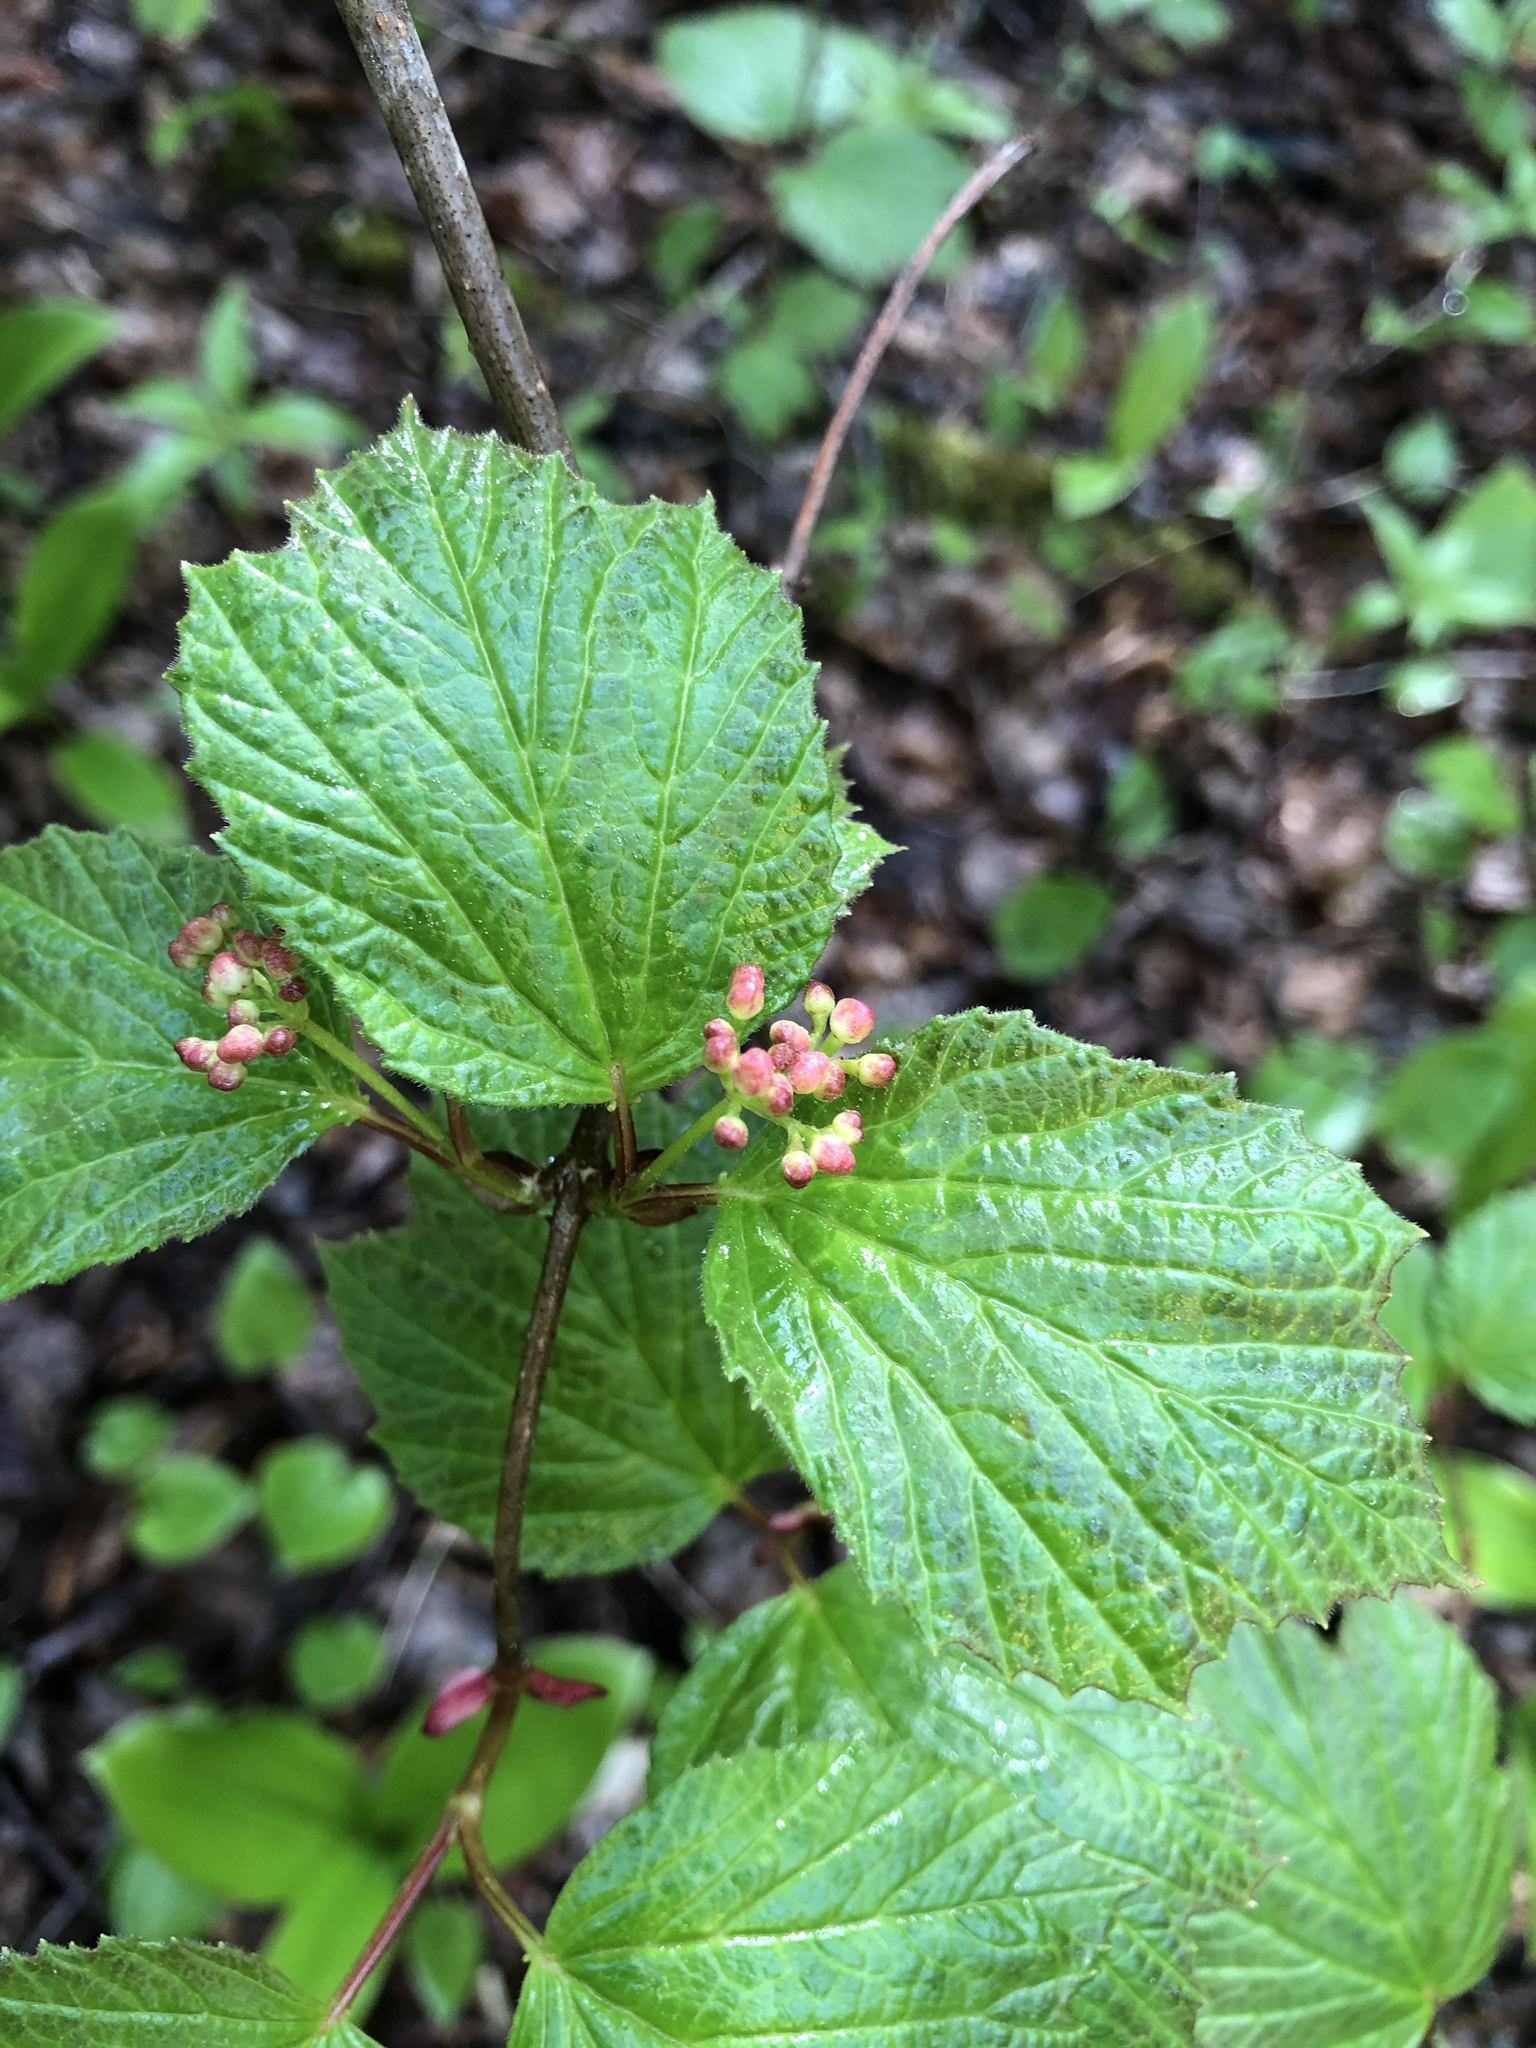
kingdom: Plantae
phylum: Tracheophyta
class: Magnoliopsida
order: Dipsacales
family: Viburnaceae
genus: Viburnum
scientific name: Viburnum edule
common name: Mooseberry
